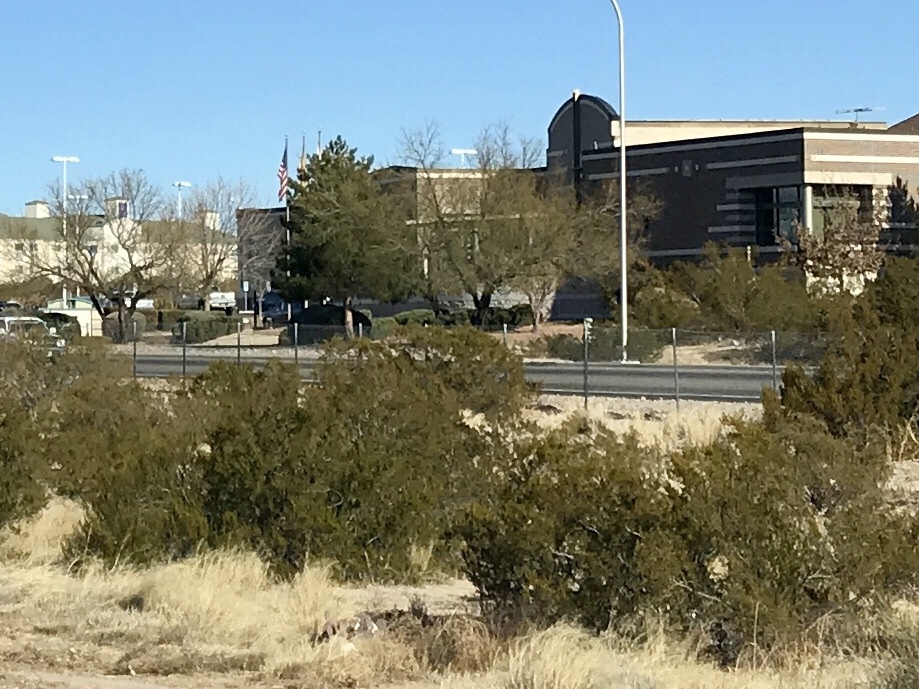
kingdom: Plantae
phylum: Tracheophyta
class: Magnoliopsida
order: Zygophyllales
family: Zygophyllaceae
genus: Larrea
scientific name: Larrea tridentata
